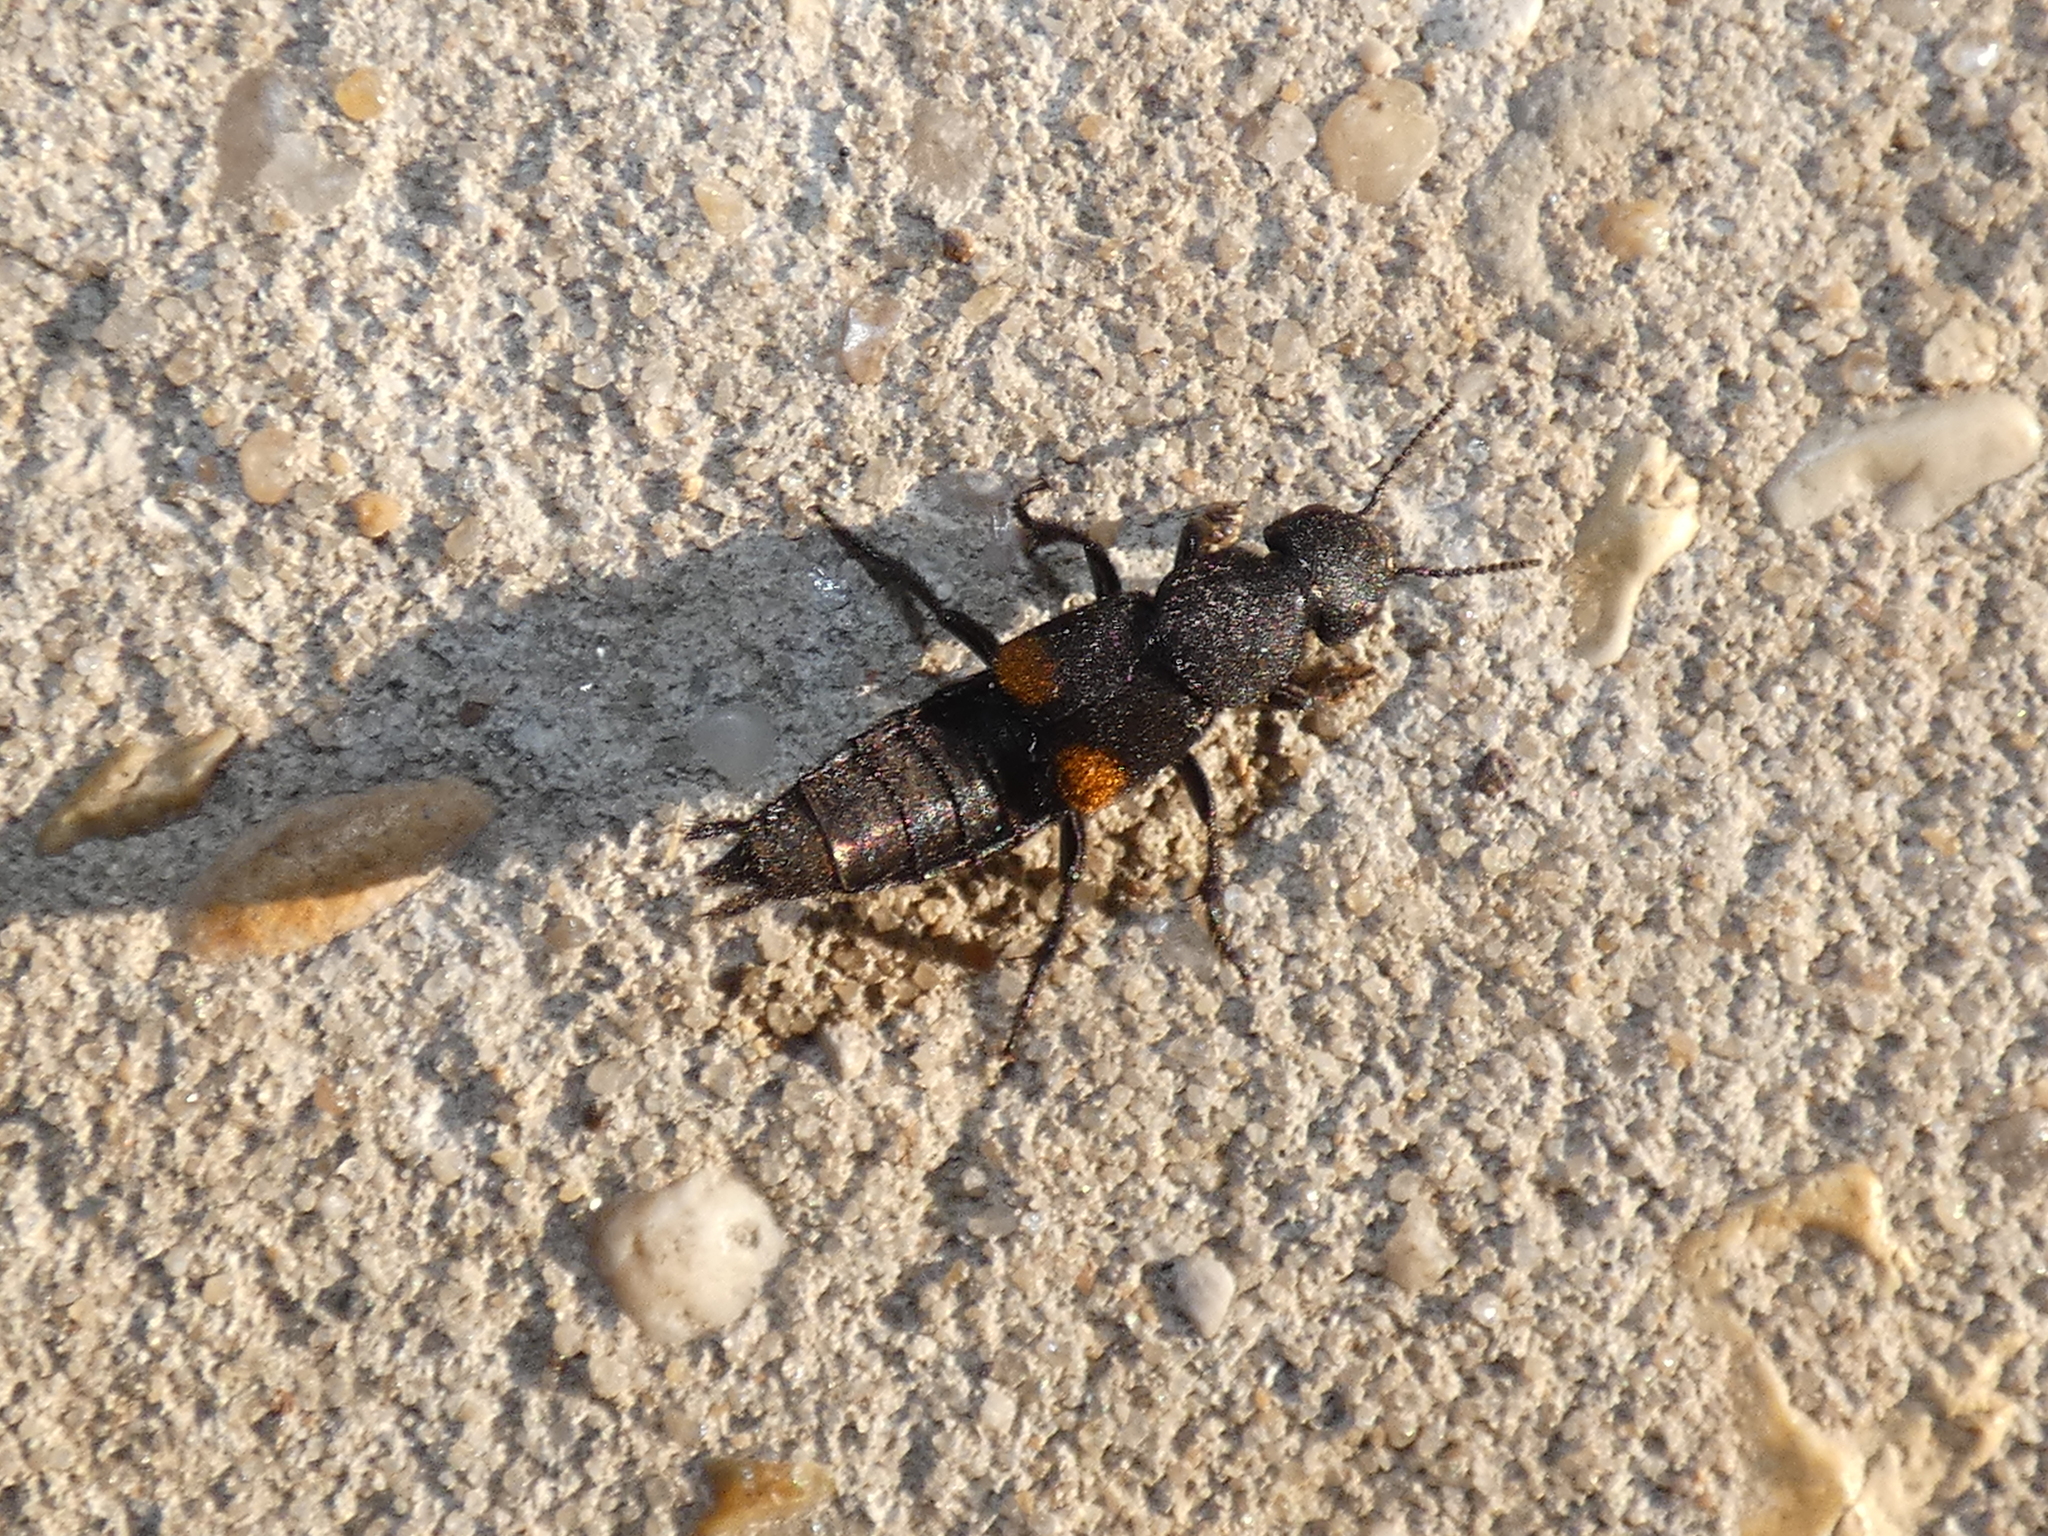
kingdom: Animalia
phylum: Arthropoda
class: Insecta
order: Coleoptera
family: Staphylinidae
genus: Platydracus
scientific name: Platydracus fossator
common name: Red-spotted rove beetle
